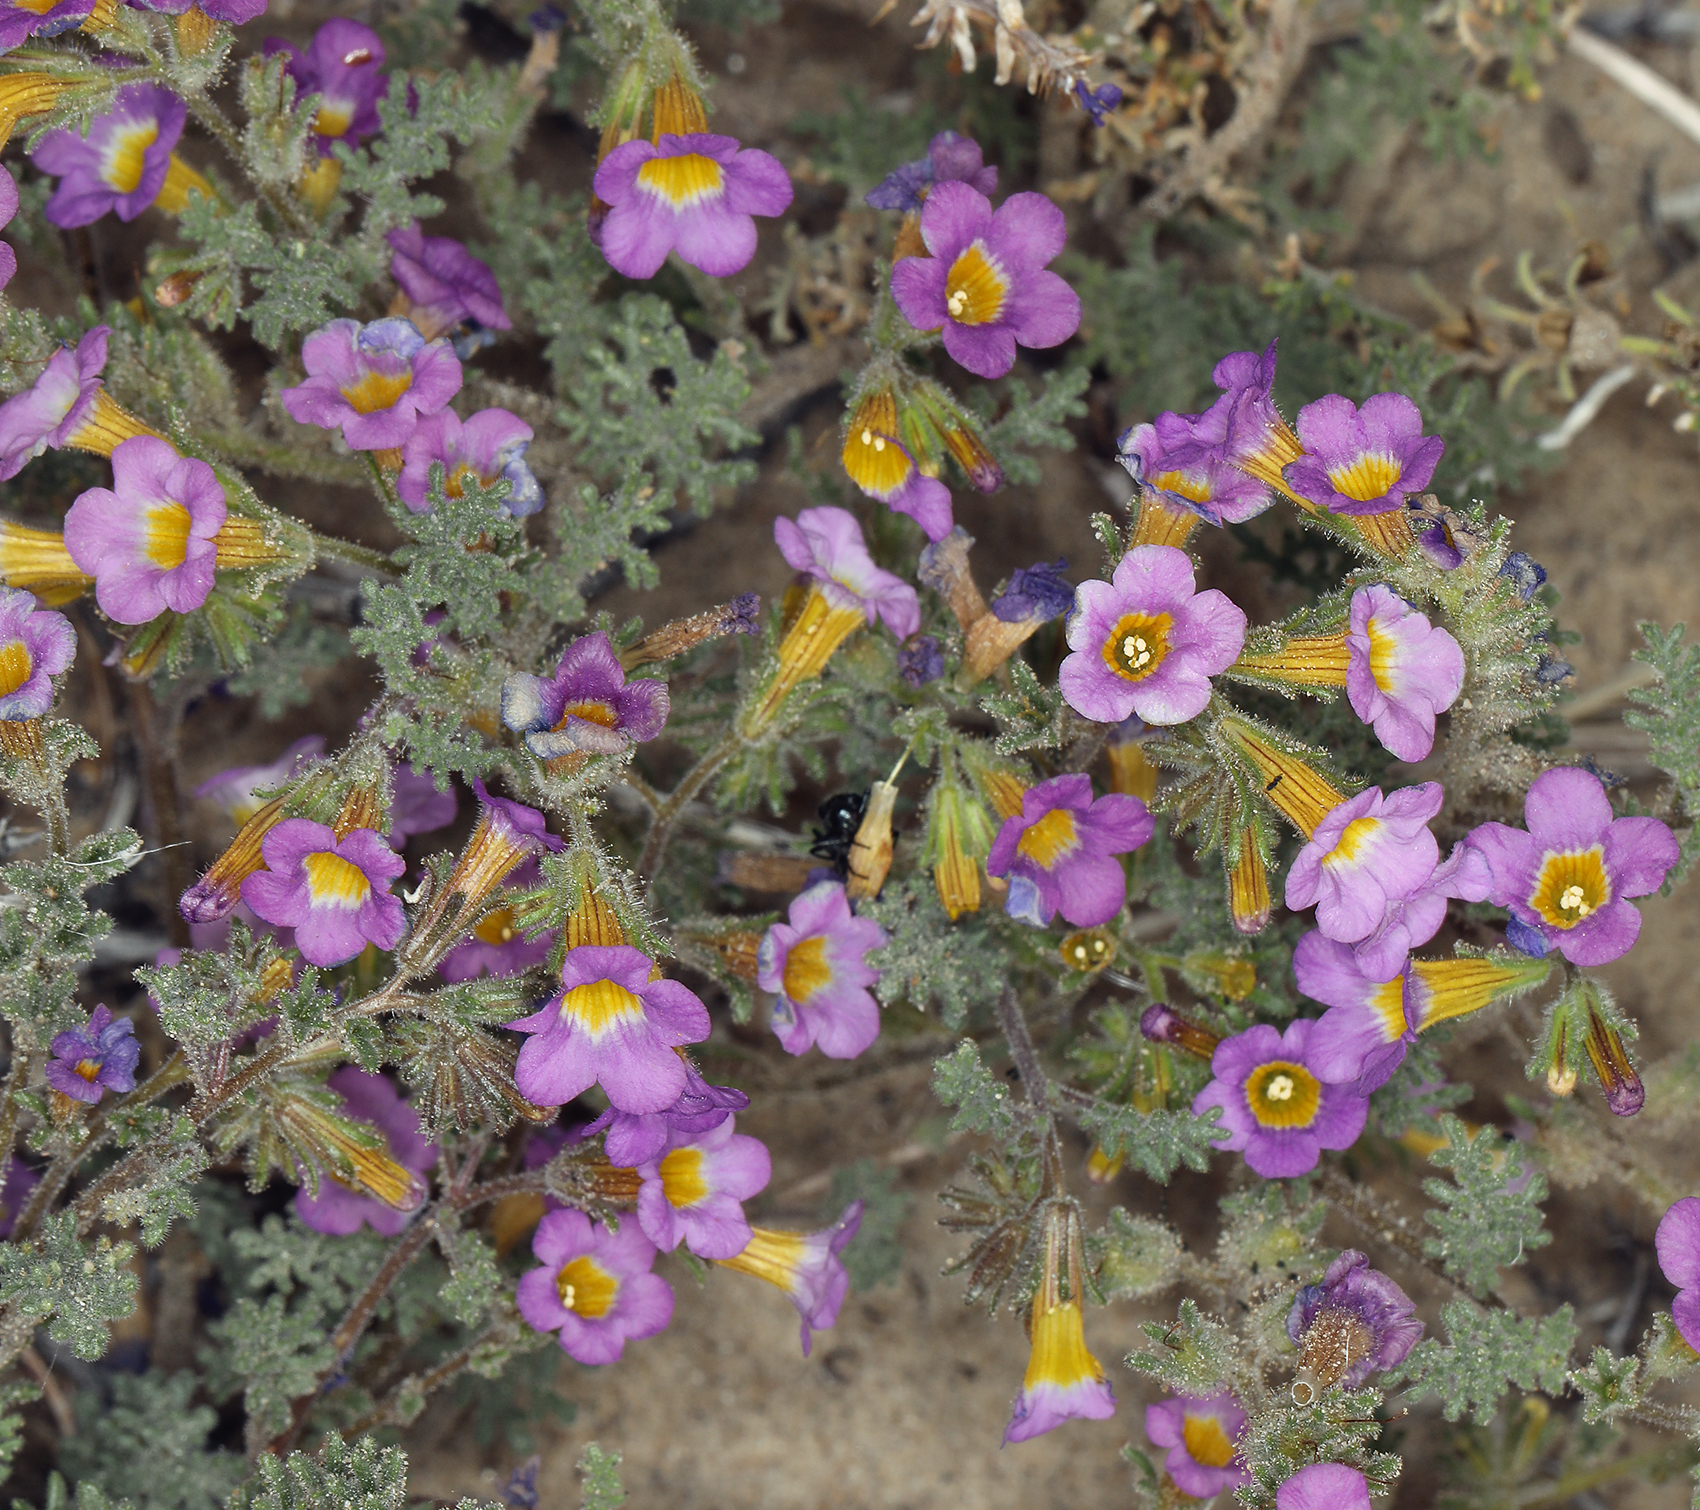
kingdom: Plantae
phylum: Tracheophyta
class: Magnoliopsida
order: Boraginales
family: Hydrophyllaceae
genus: Phacelia
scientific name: Phacelia bicolor
